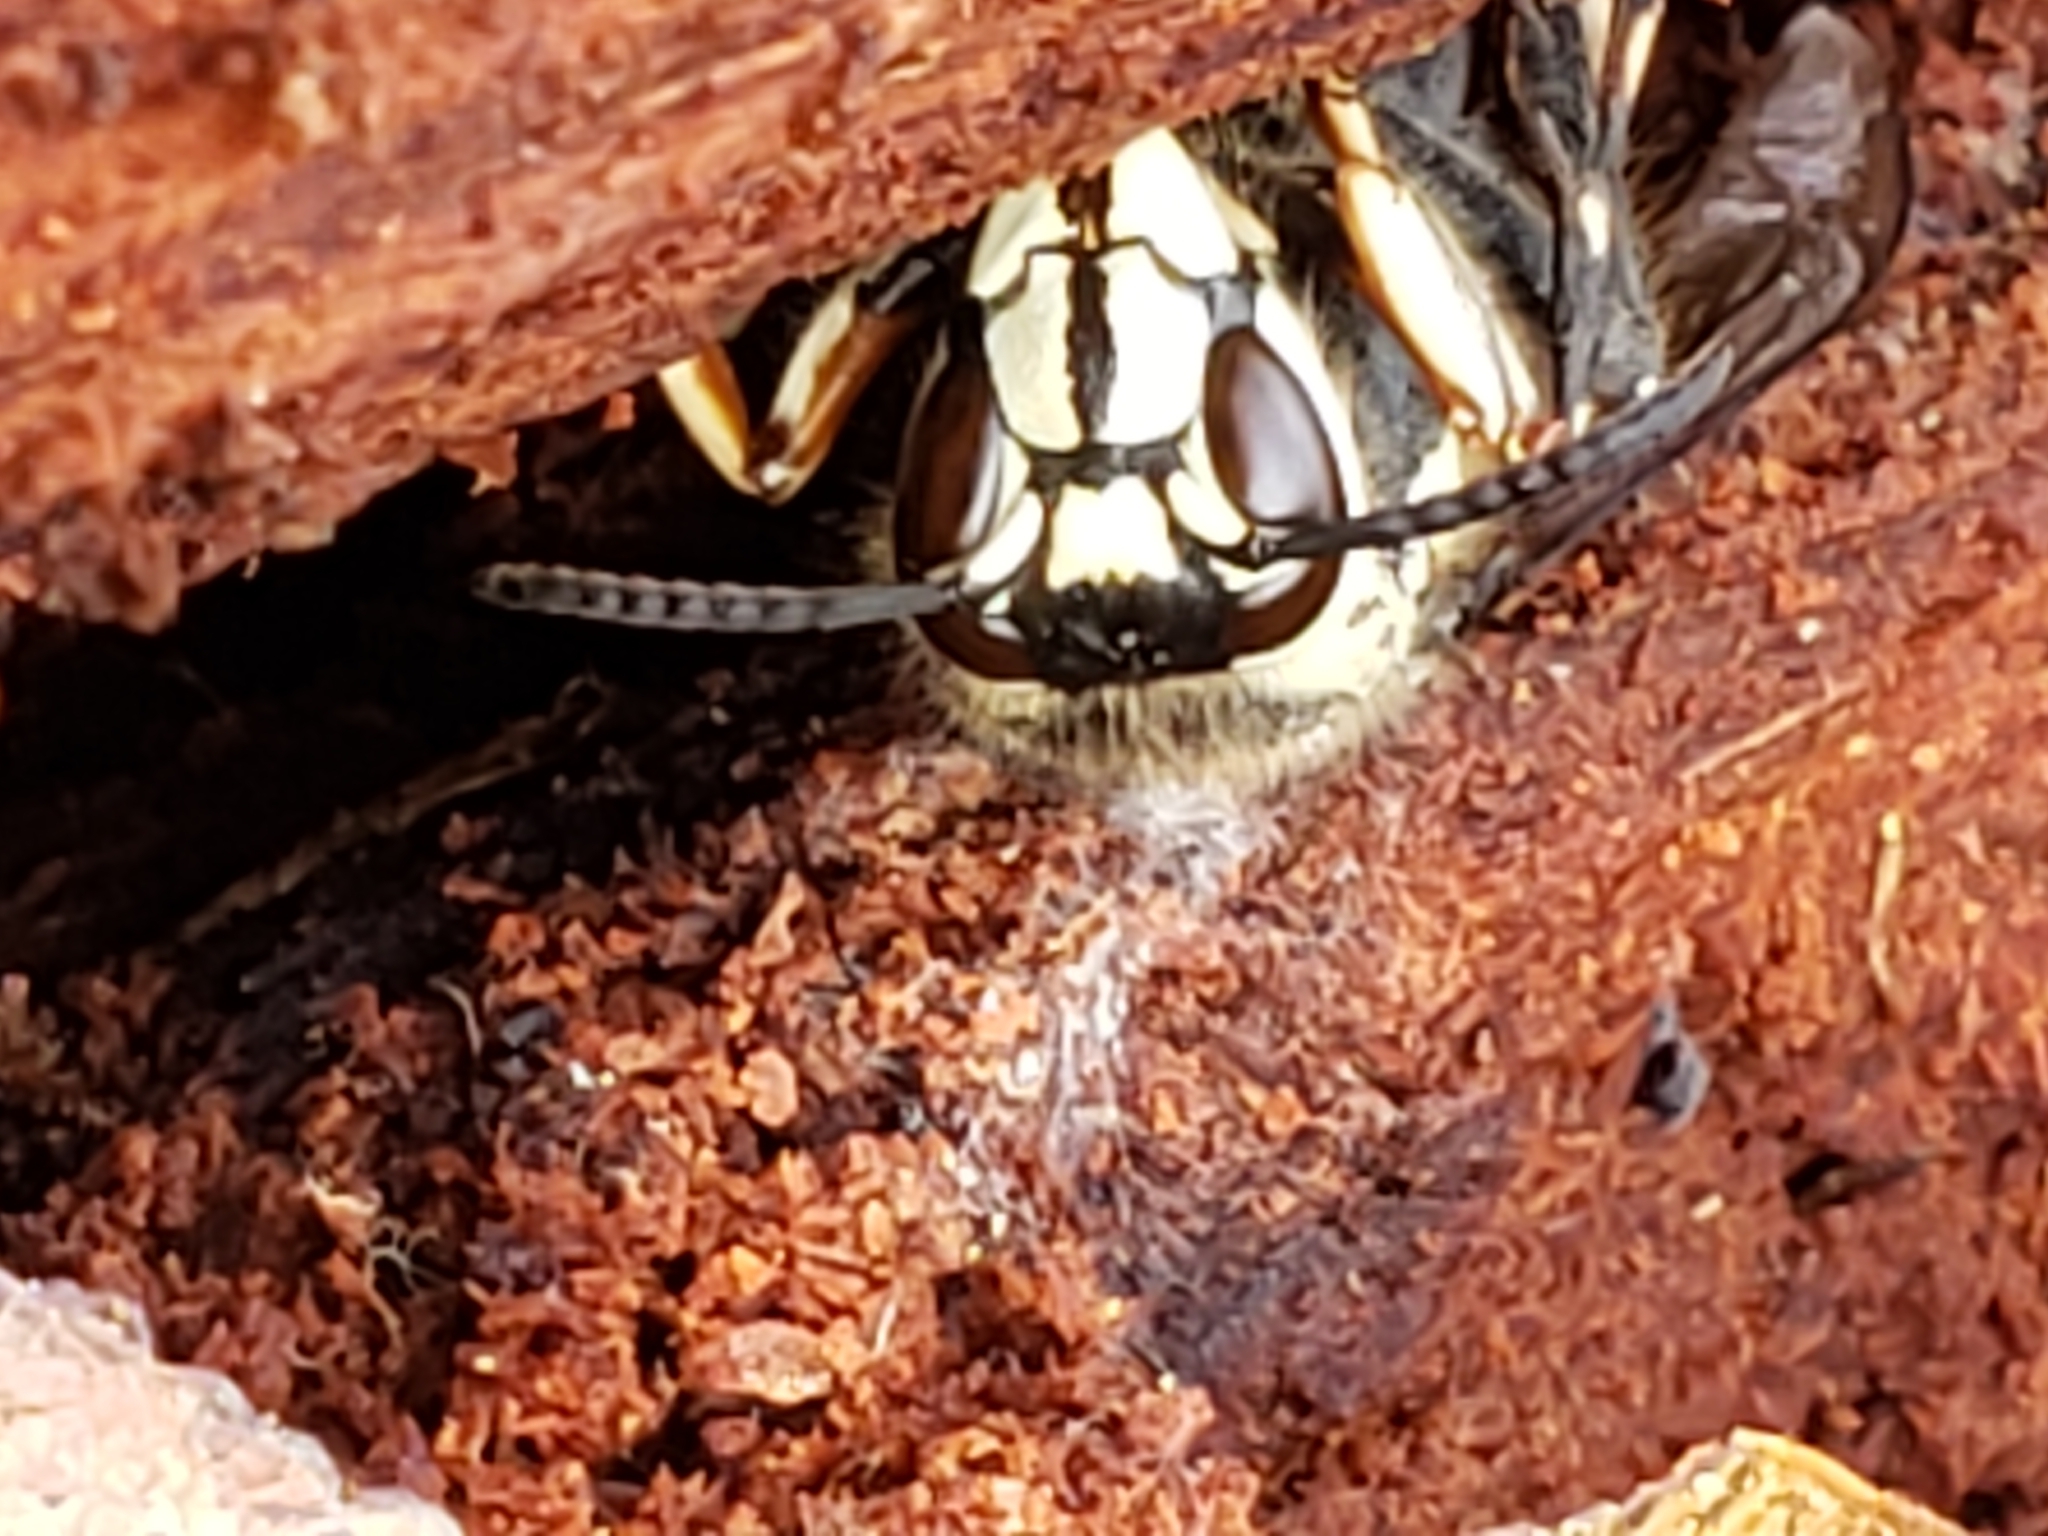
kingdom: Animalia
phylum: Arthropoda
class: Insecta
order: Hymenoptera
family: Vespidae
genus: Dolichovespula
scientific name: Dolichovespula maculata
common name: Bald-faced hornet
